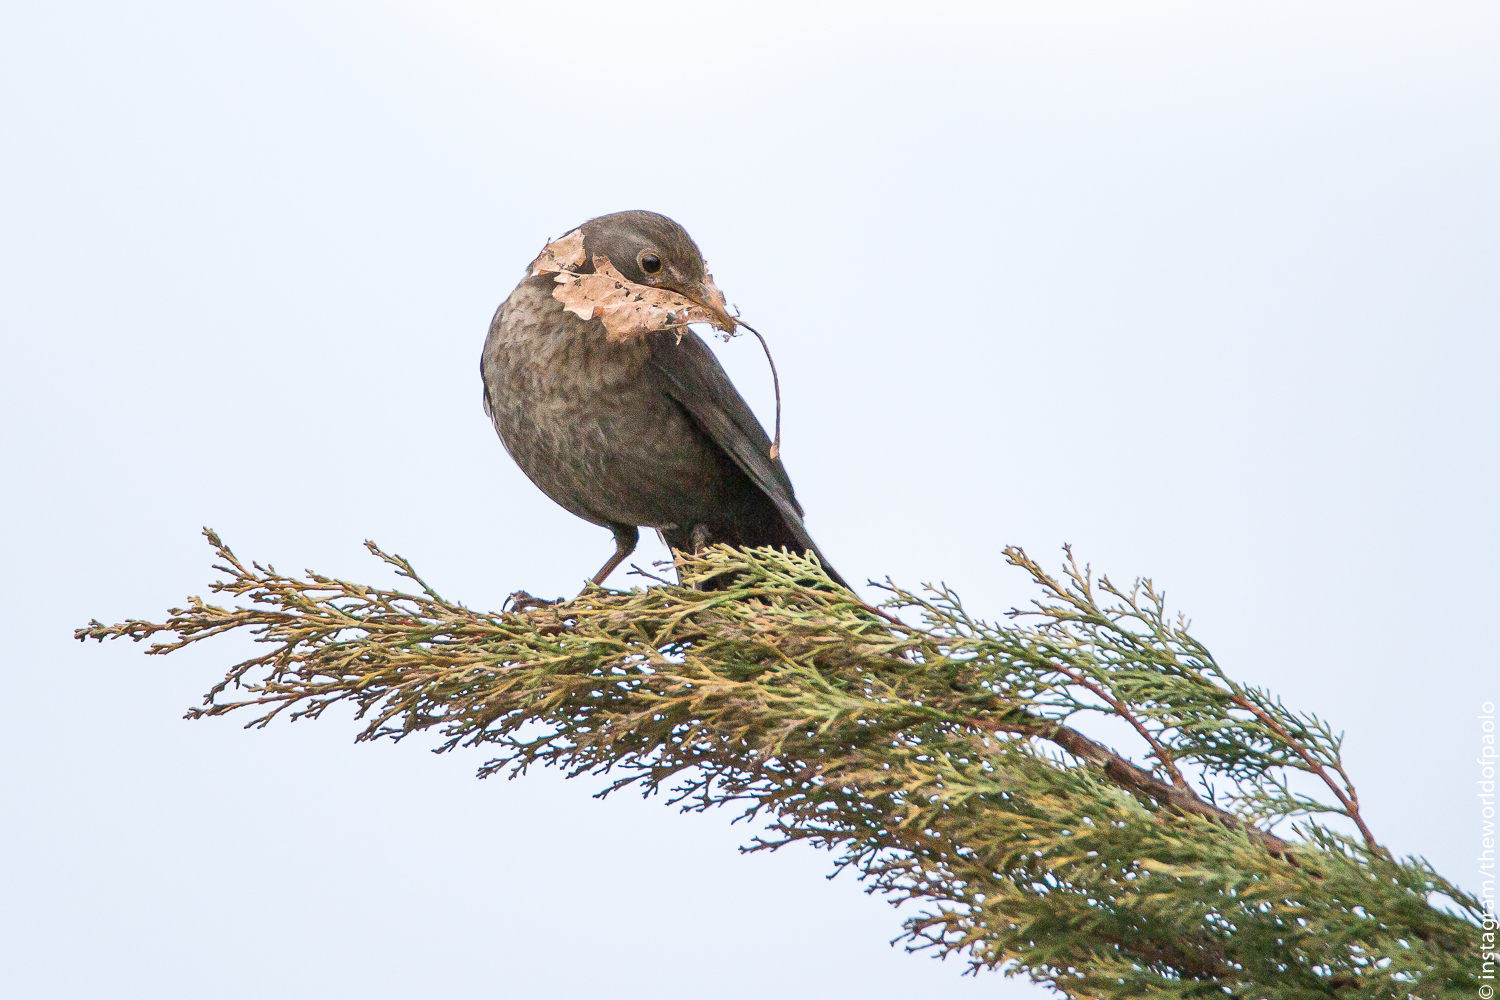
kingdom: Animalia
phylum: Chordata
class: Aves
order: Passeriformes
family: Turdidae
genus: Turdus
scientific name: Turdus merula
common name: Common blackbird
